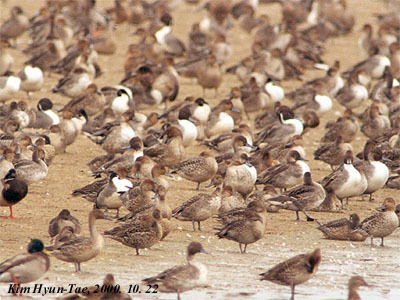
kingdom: Animalia
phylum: Chordata
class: Aves
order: Anseriformes
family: Anatidae
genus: Anas
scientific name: Anas acuta
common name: Northern pintail
